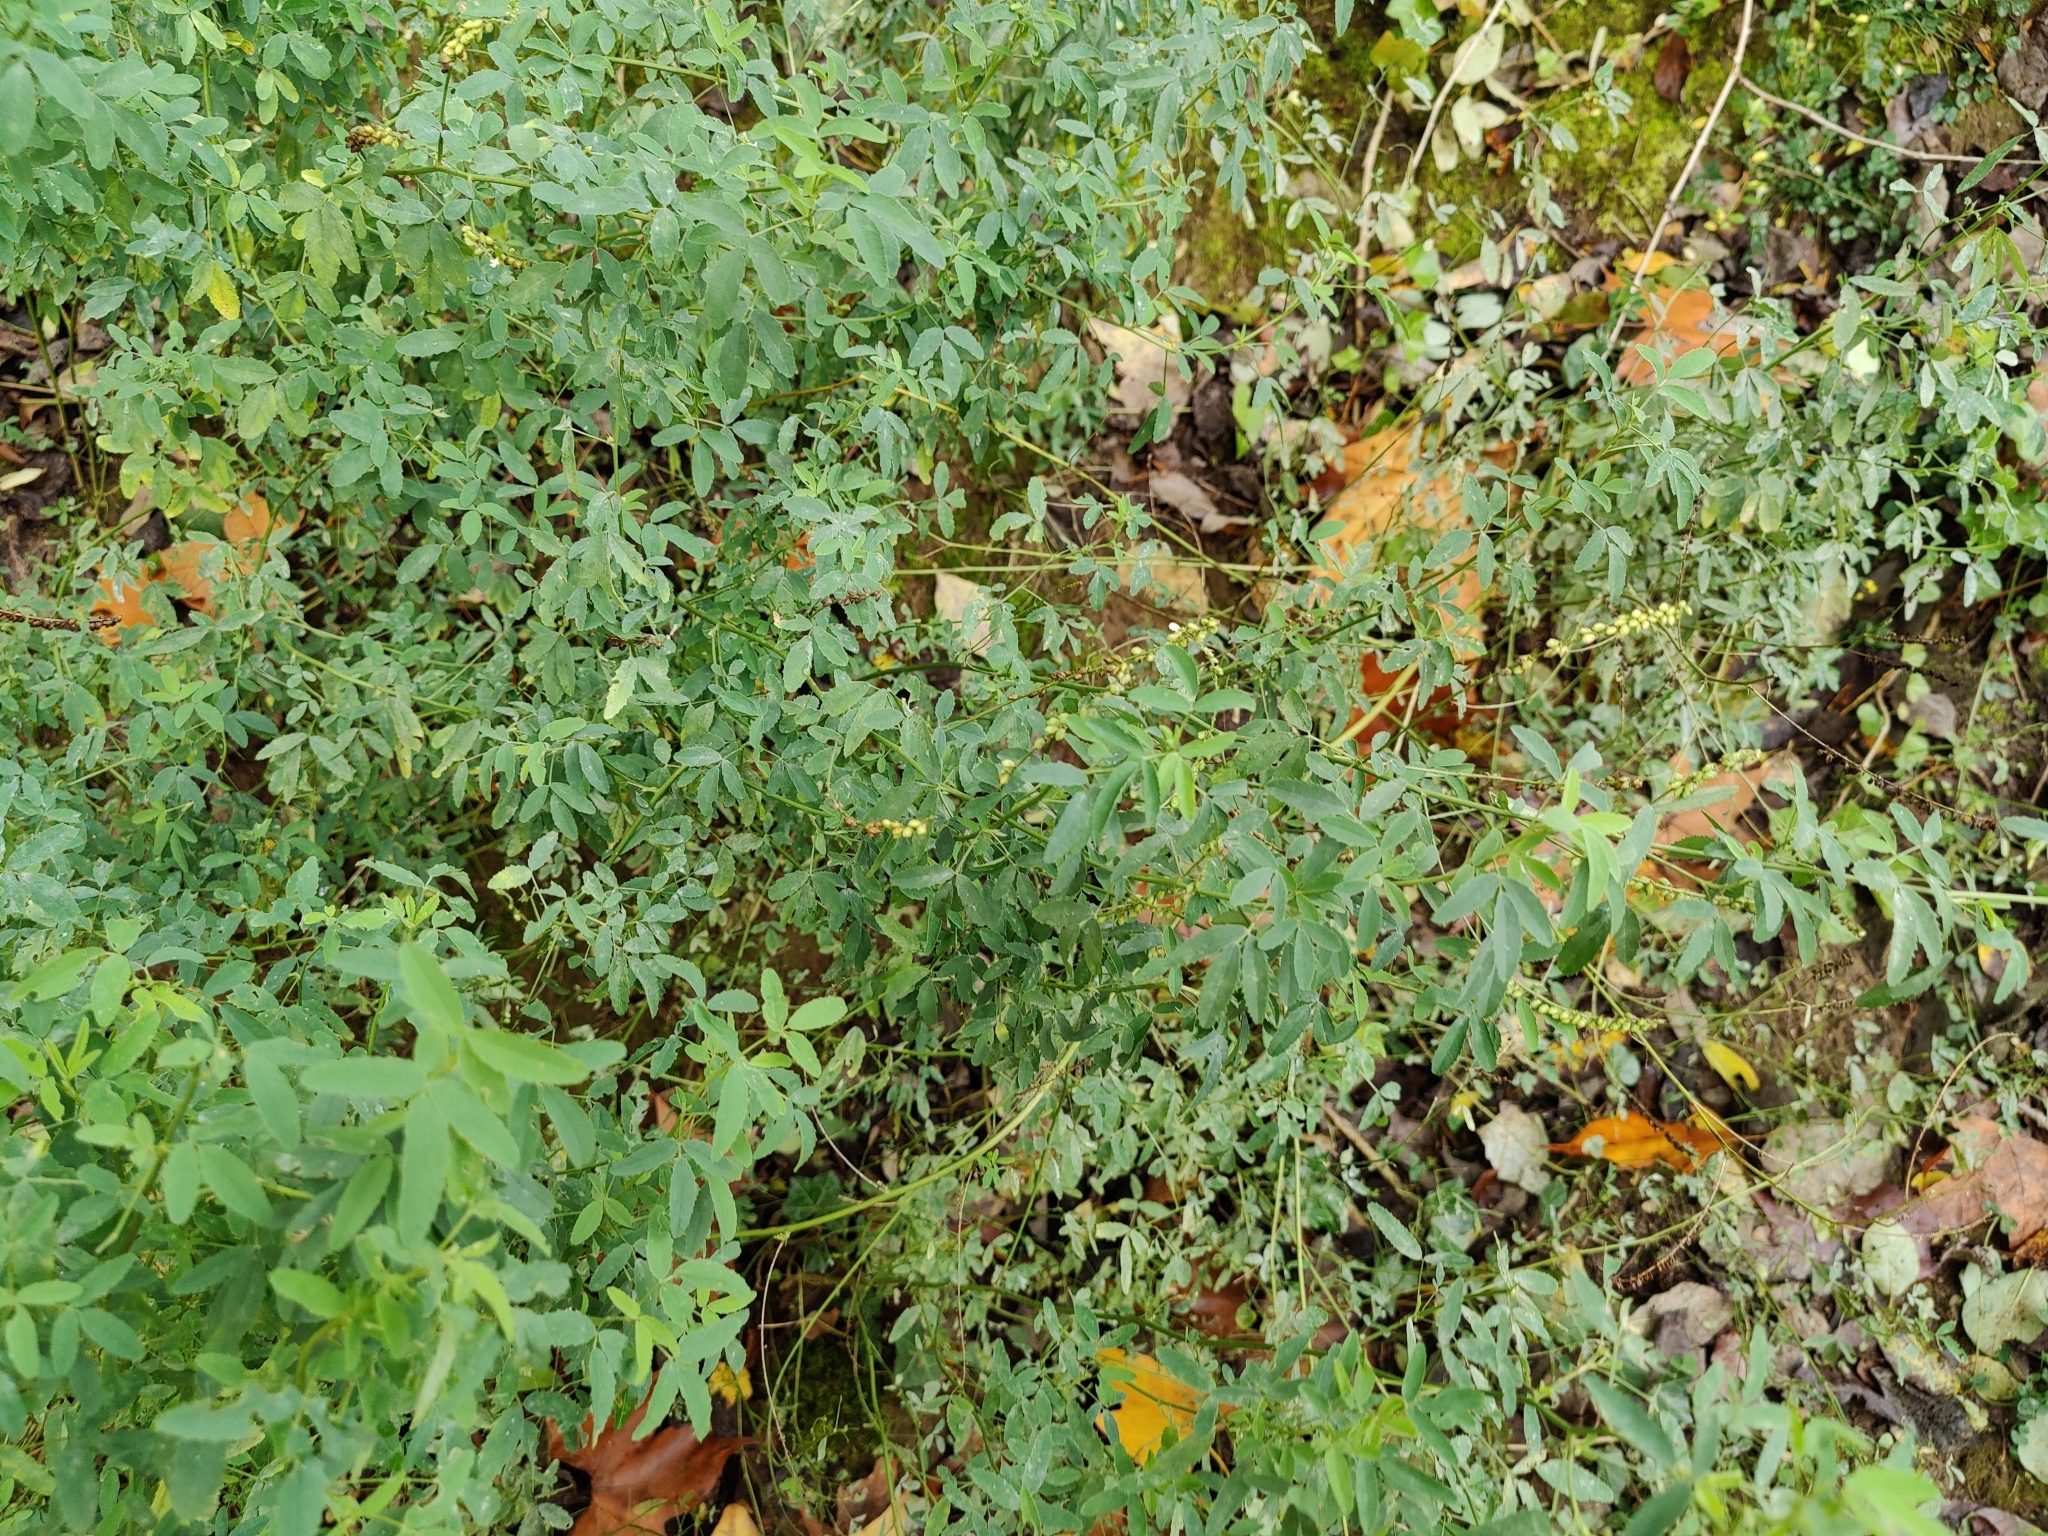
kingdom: Plantae
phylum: Tracheophyta
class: Magnoliopsida
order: Fabales
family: Fabaceae
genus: Melilotus
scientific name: Melilotus albus
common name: White melilot
